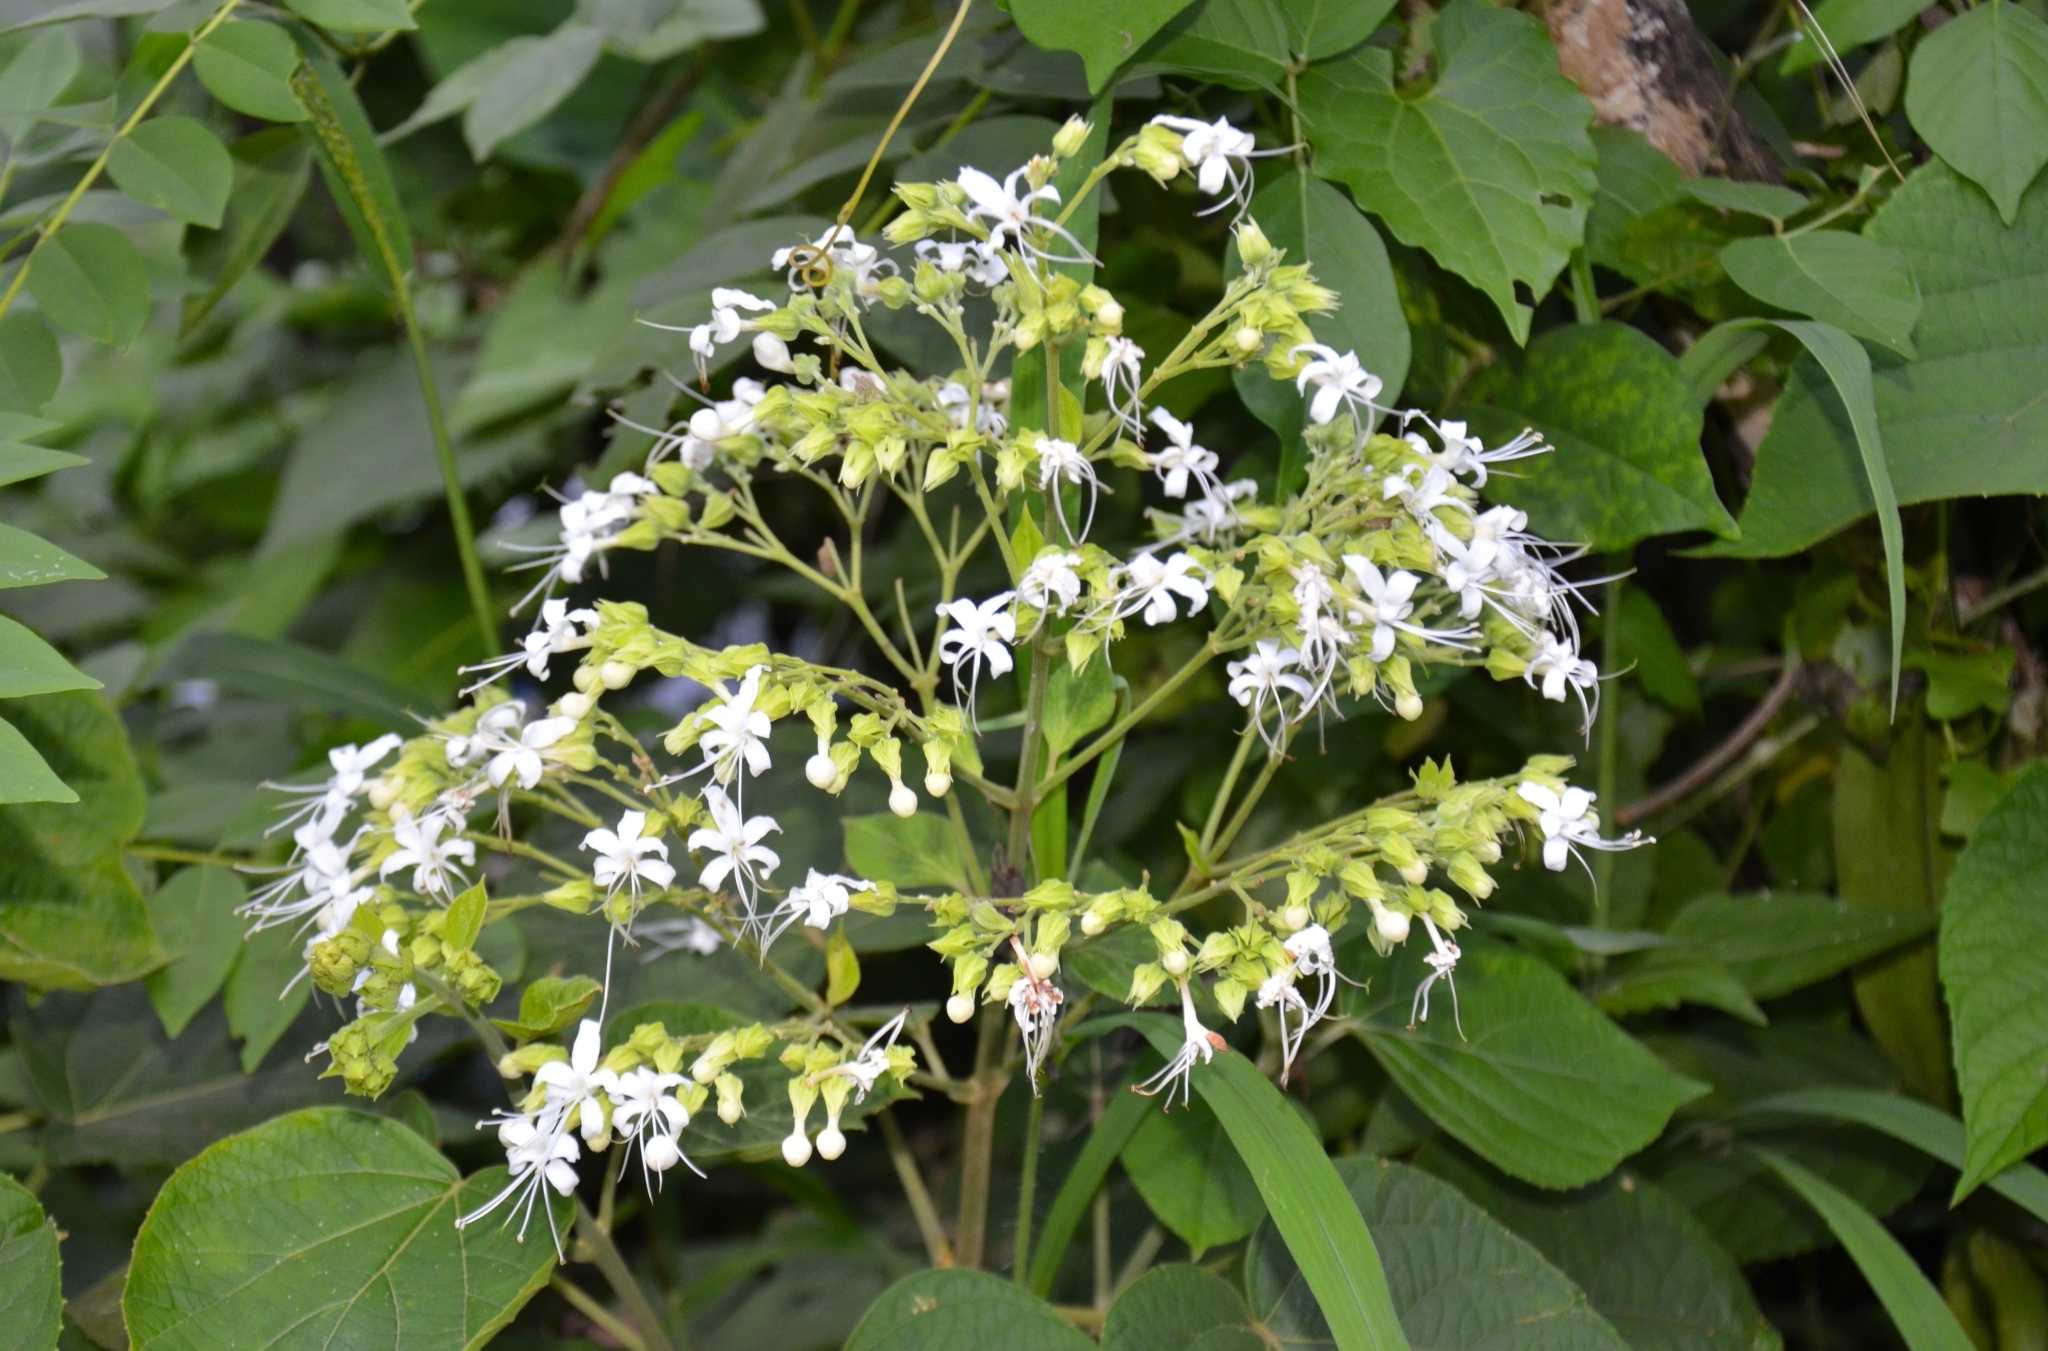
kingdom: Plantae
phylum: Tracheophyta
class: Magnoliopsida
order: Lamiales
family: Lamiaceae
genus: Clerodendrum
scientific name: Clerodendrum infortunatum
